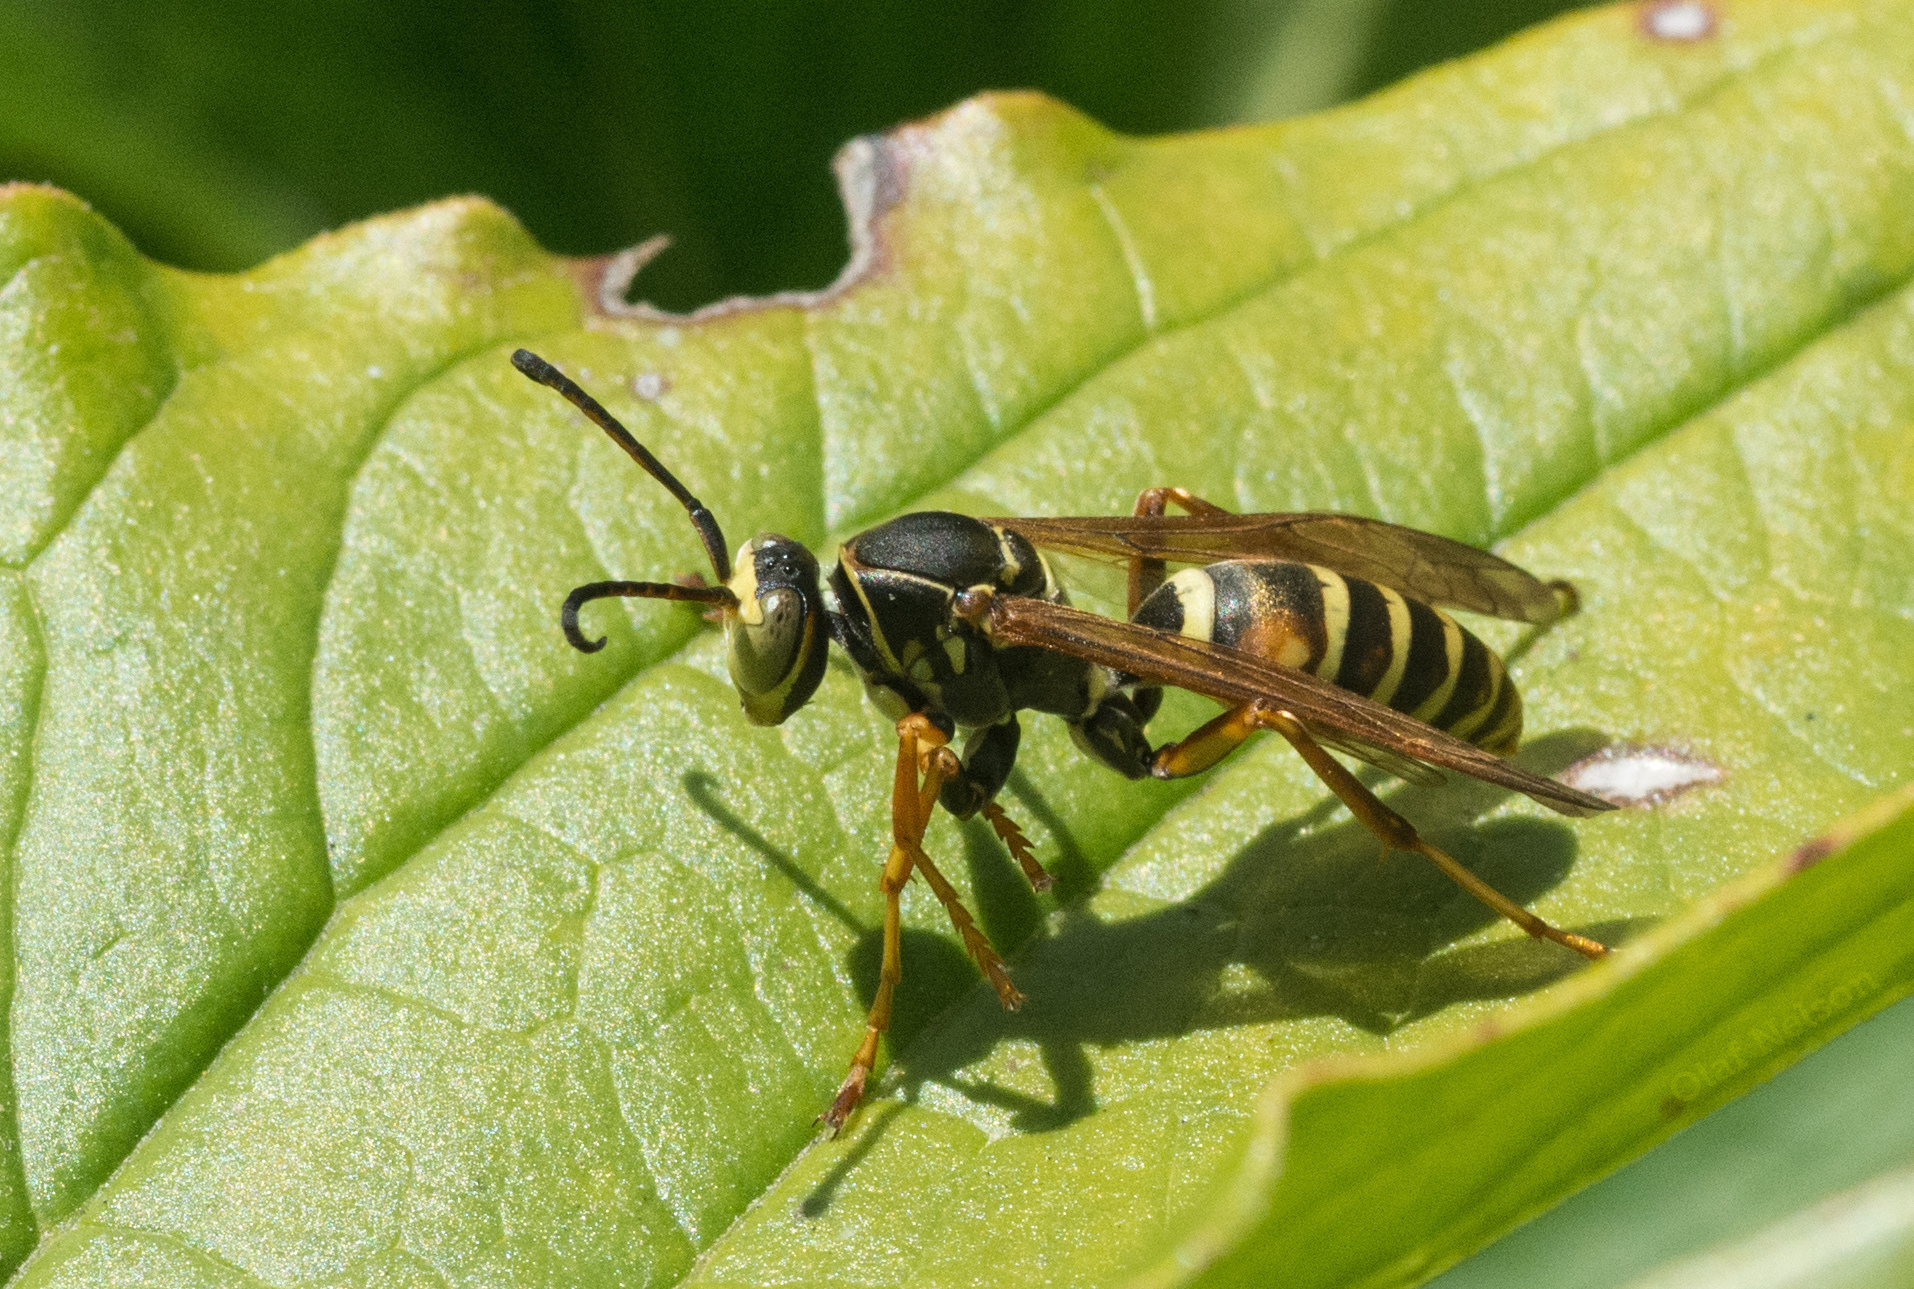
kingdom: Animalia
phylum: Arthropoda
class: Insecta
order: Hymenoptera
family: Eumenidae
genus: Polistes
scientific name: Polistes fuscatus
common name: Dark paper wasp
